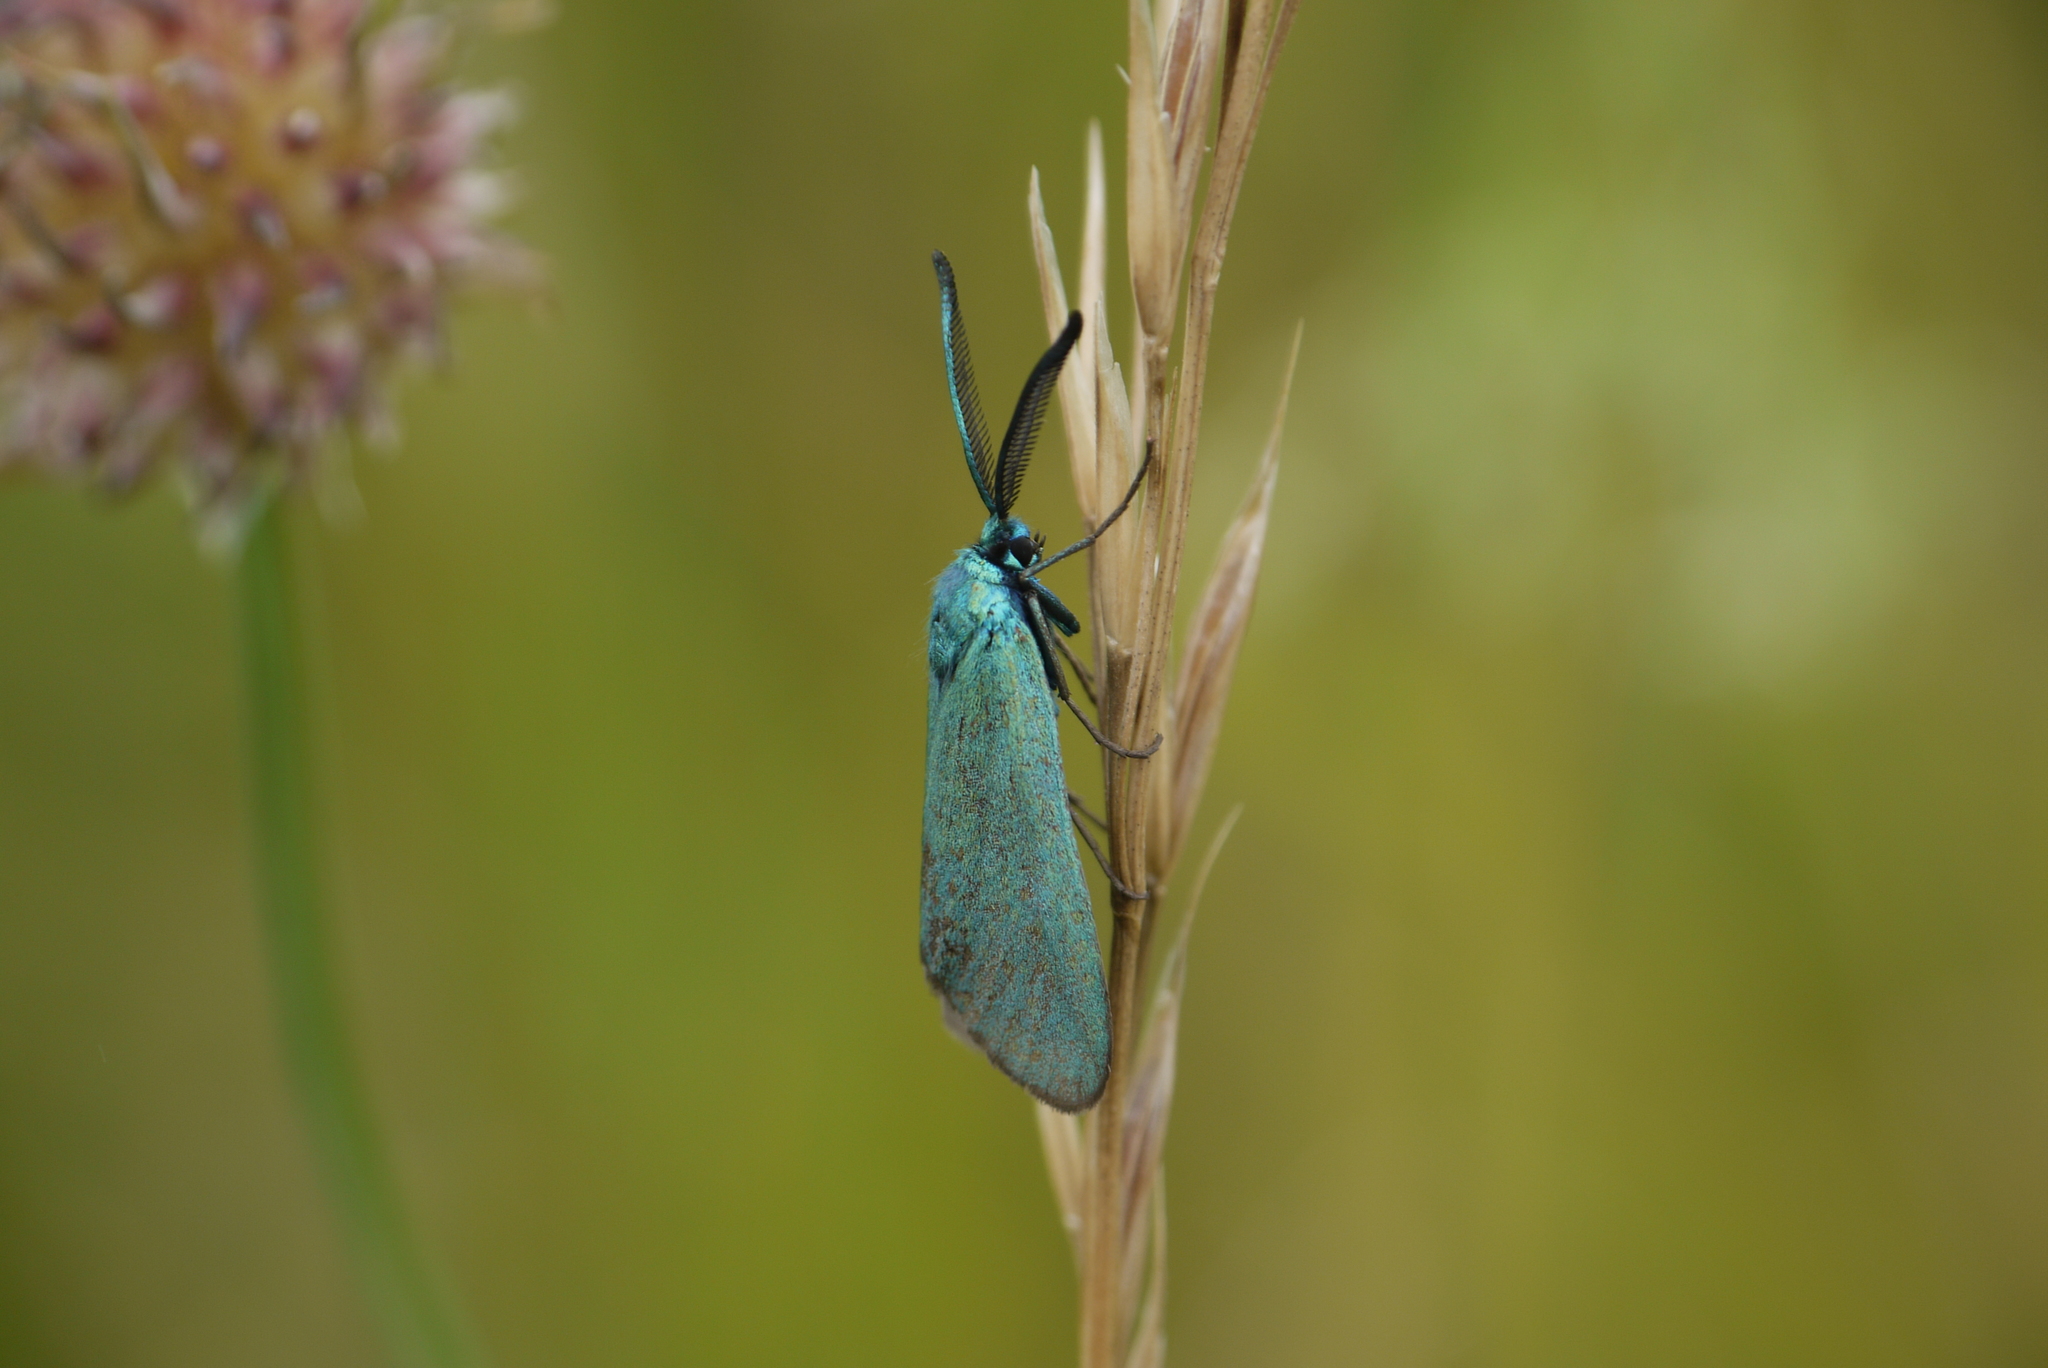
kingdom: Animalia
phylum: Arthropoda
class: Insecta
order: Lepidoptera
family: Zygaenidae
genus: Adscita
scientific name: Adscita statices
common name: Forester
